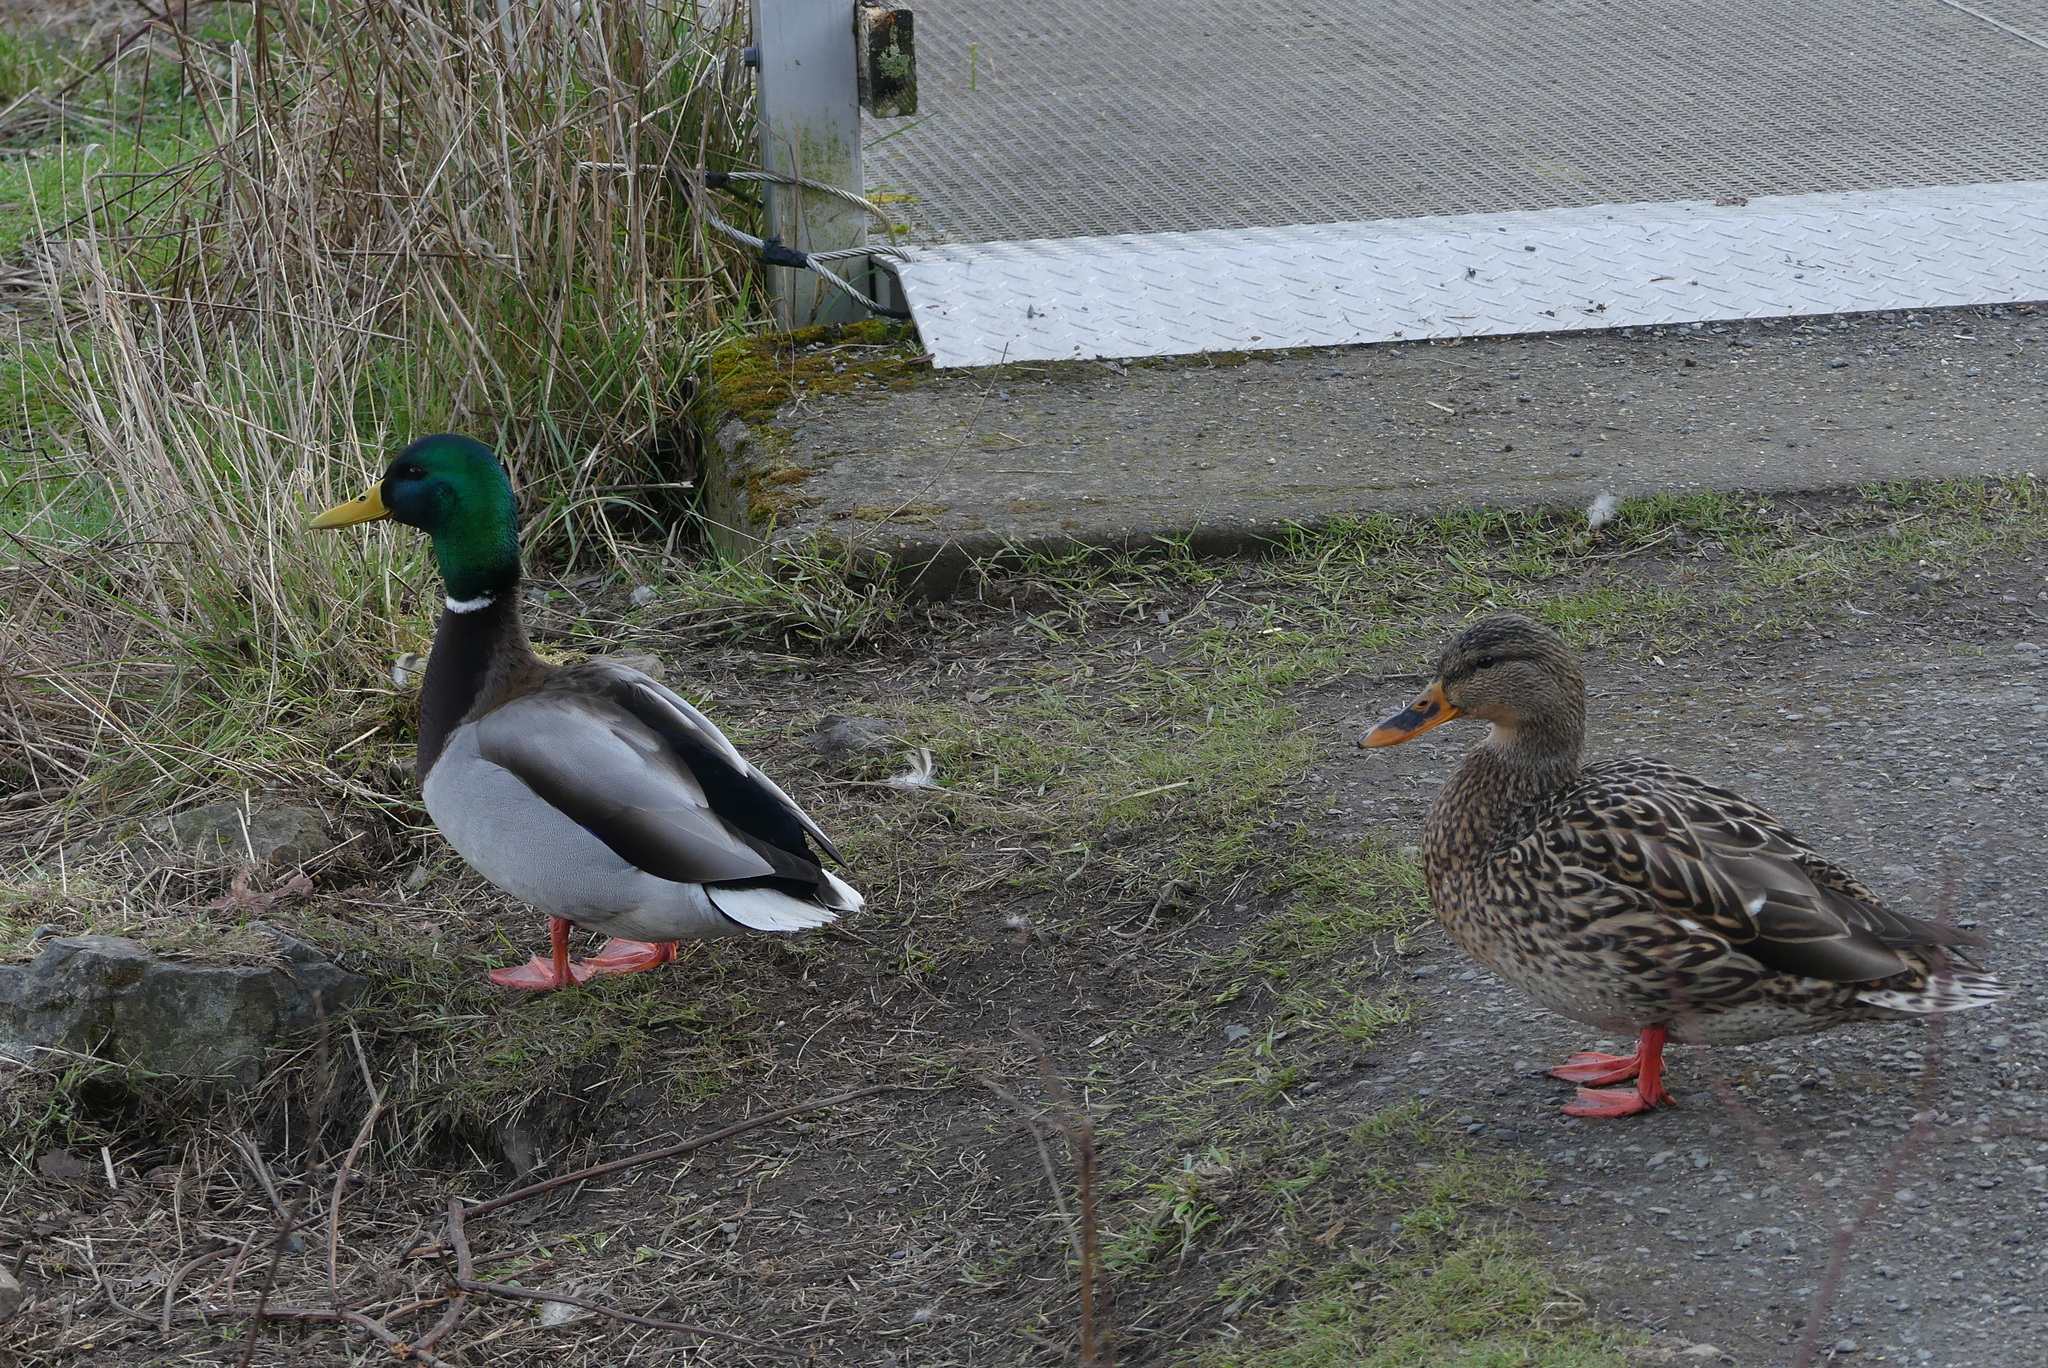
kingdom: Animalia
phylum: Chordata
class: Aves
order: Anseriformes
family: Anatidae
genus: Anas
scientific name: Anas platyrhynchos
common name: Mallard
